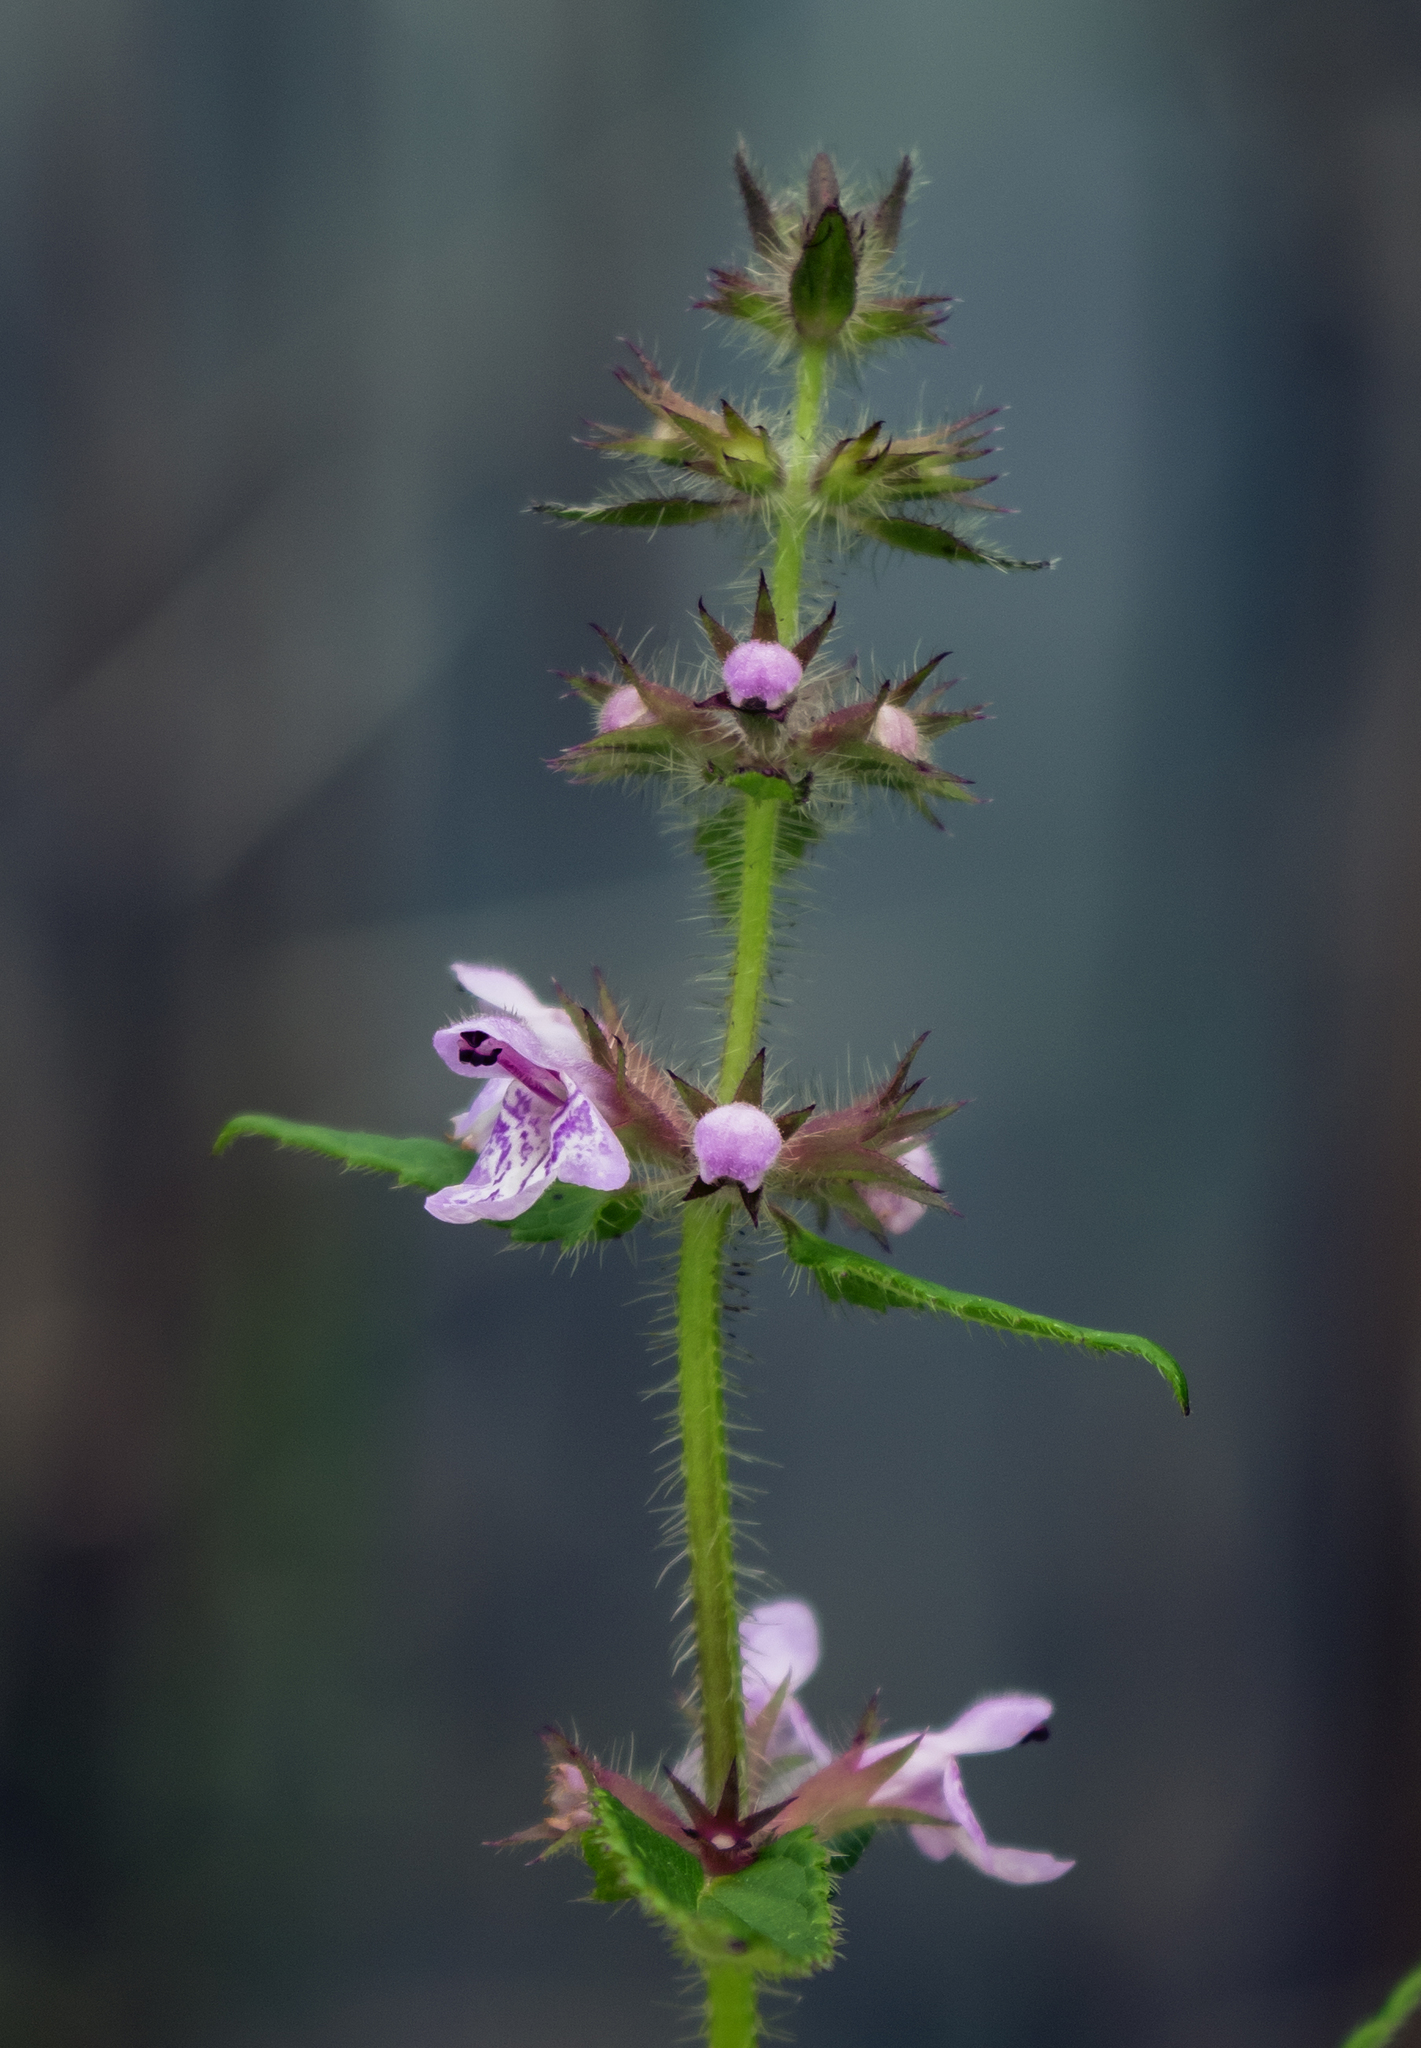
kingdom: Plantae
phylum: Tracheophyta
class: Magnoliopsida
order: Lamiales
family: Lamiaceae
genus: Stachys
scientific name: Stachys hispida
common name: Hispid hedge-nettle
